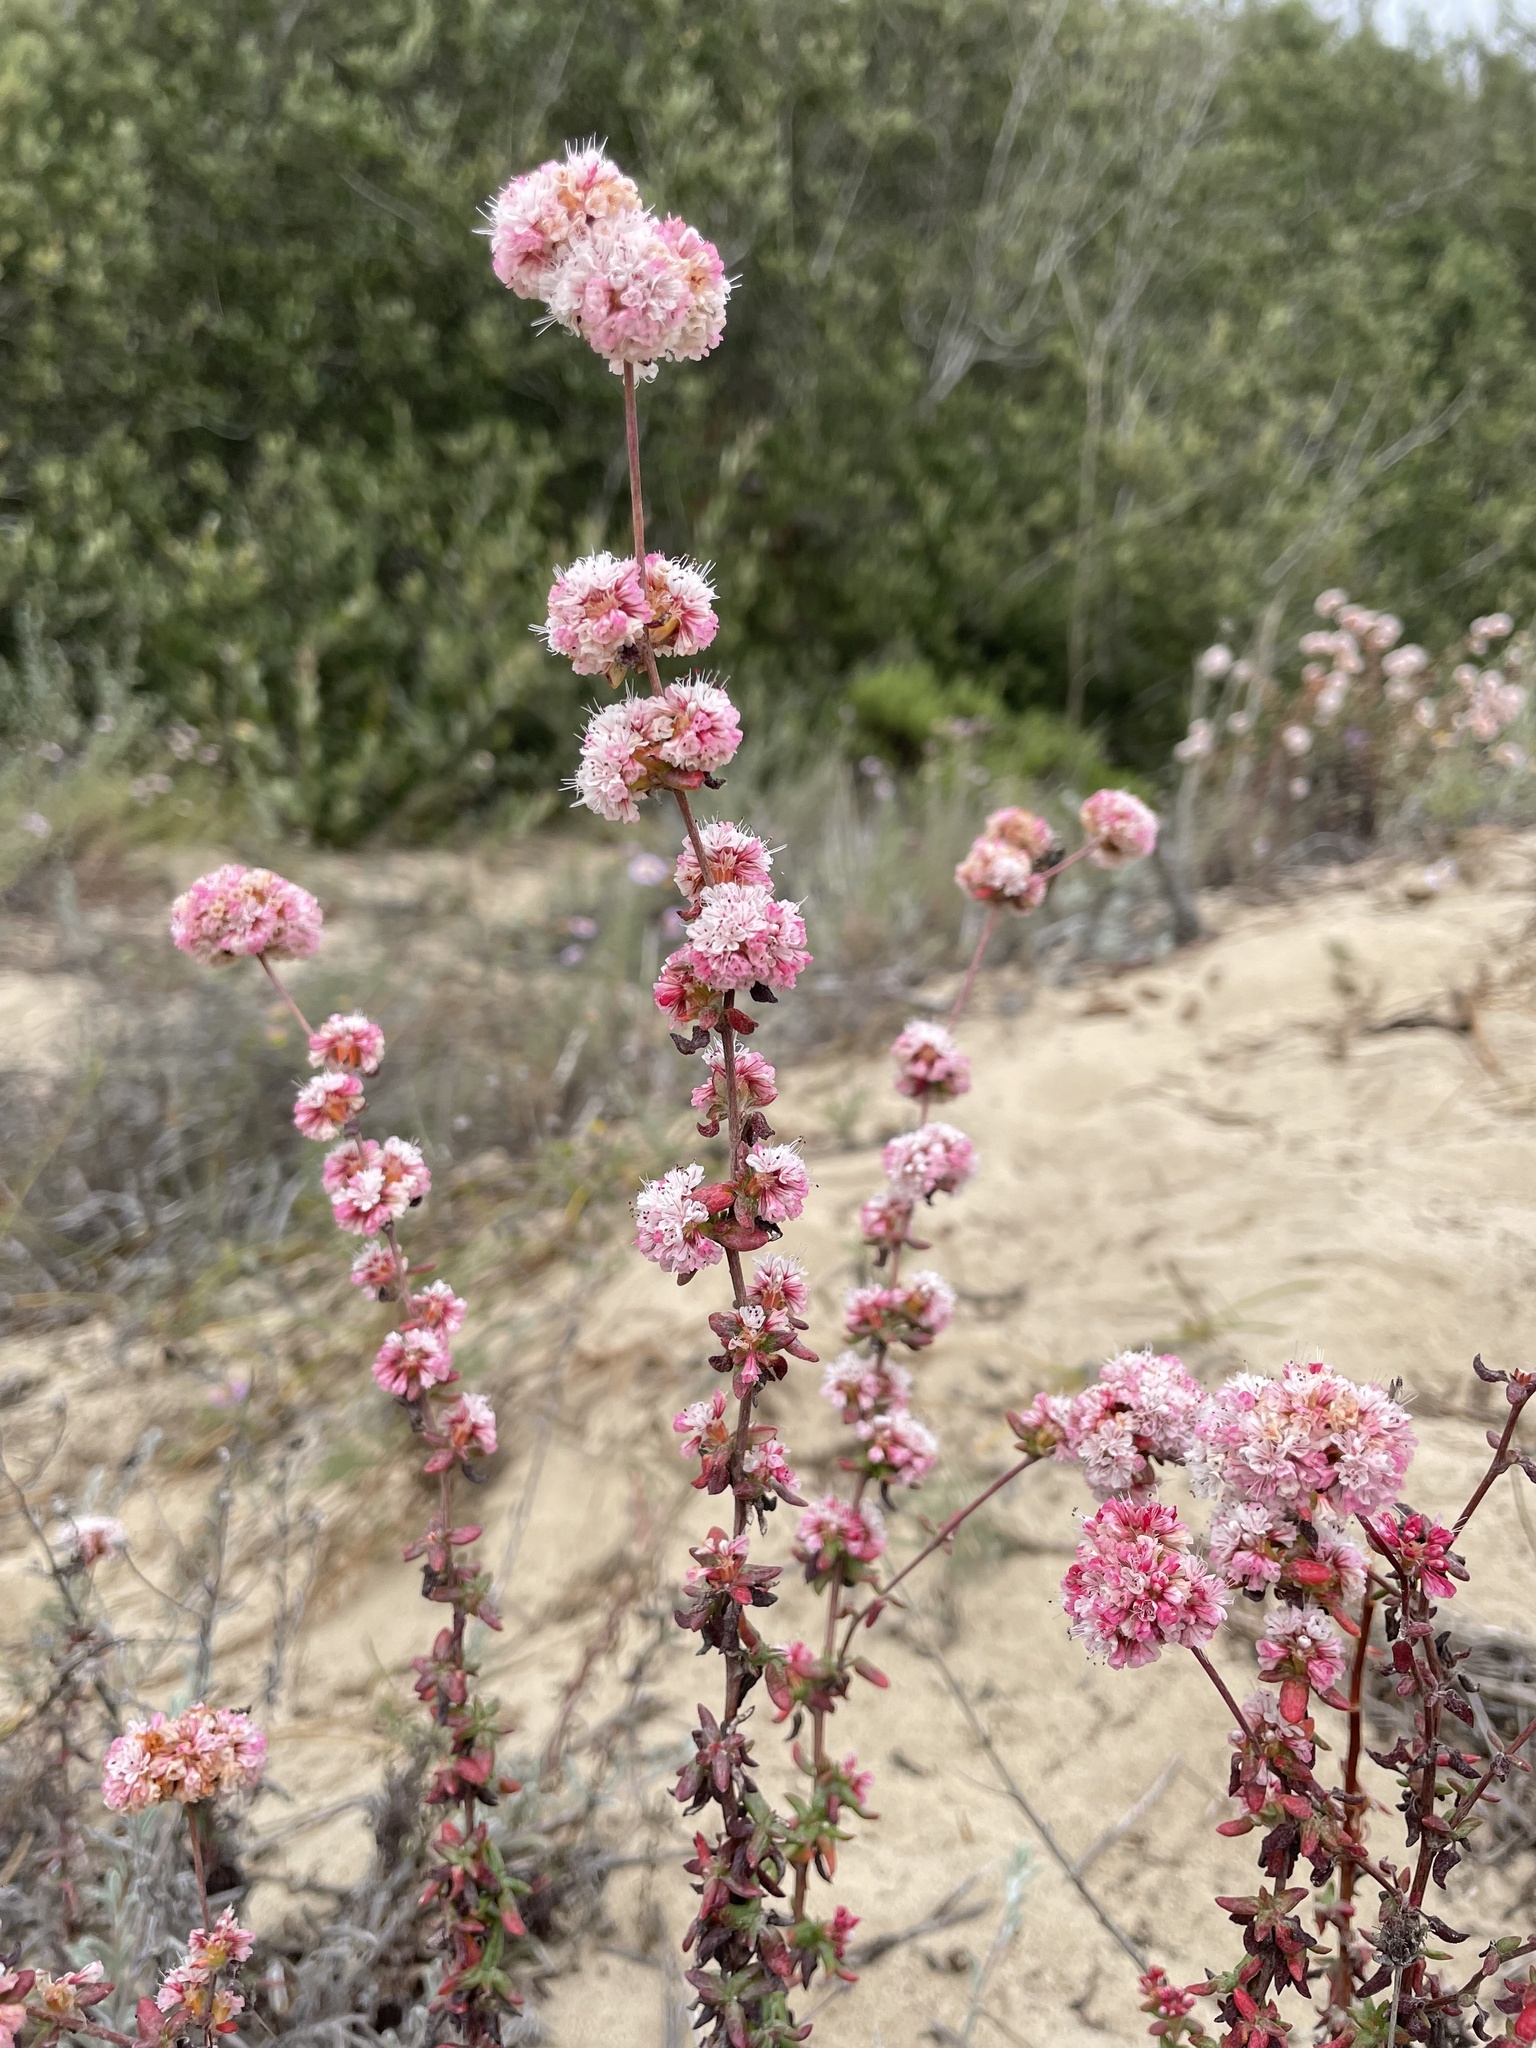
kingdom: Plantae
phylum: Tracheophyta
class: Magnoliopsida
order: Caryophyllales
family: Polygonaceae
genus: Eriogonum
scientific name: Eriogonum parvifolium
